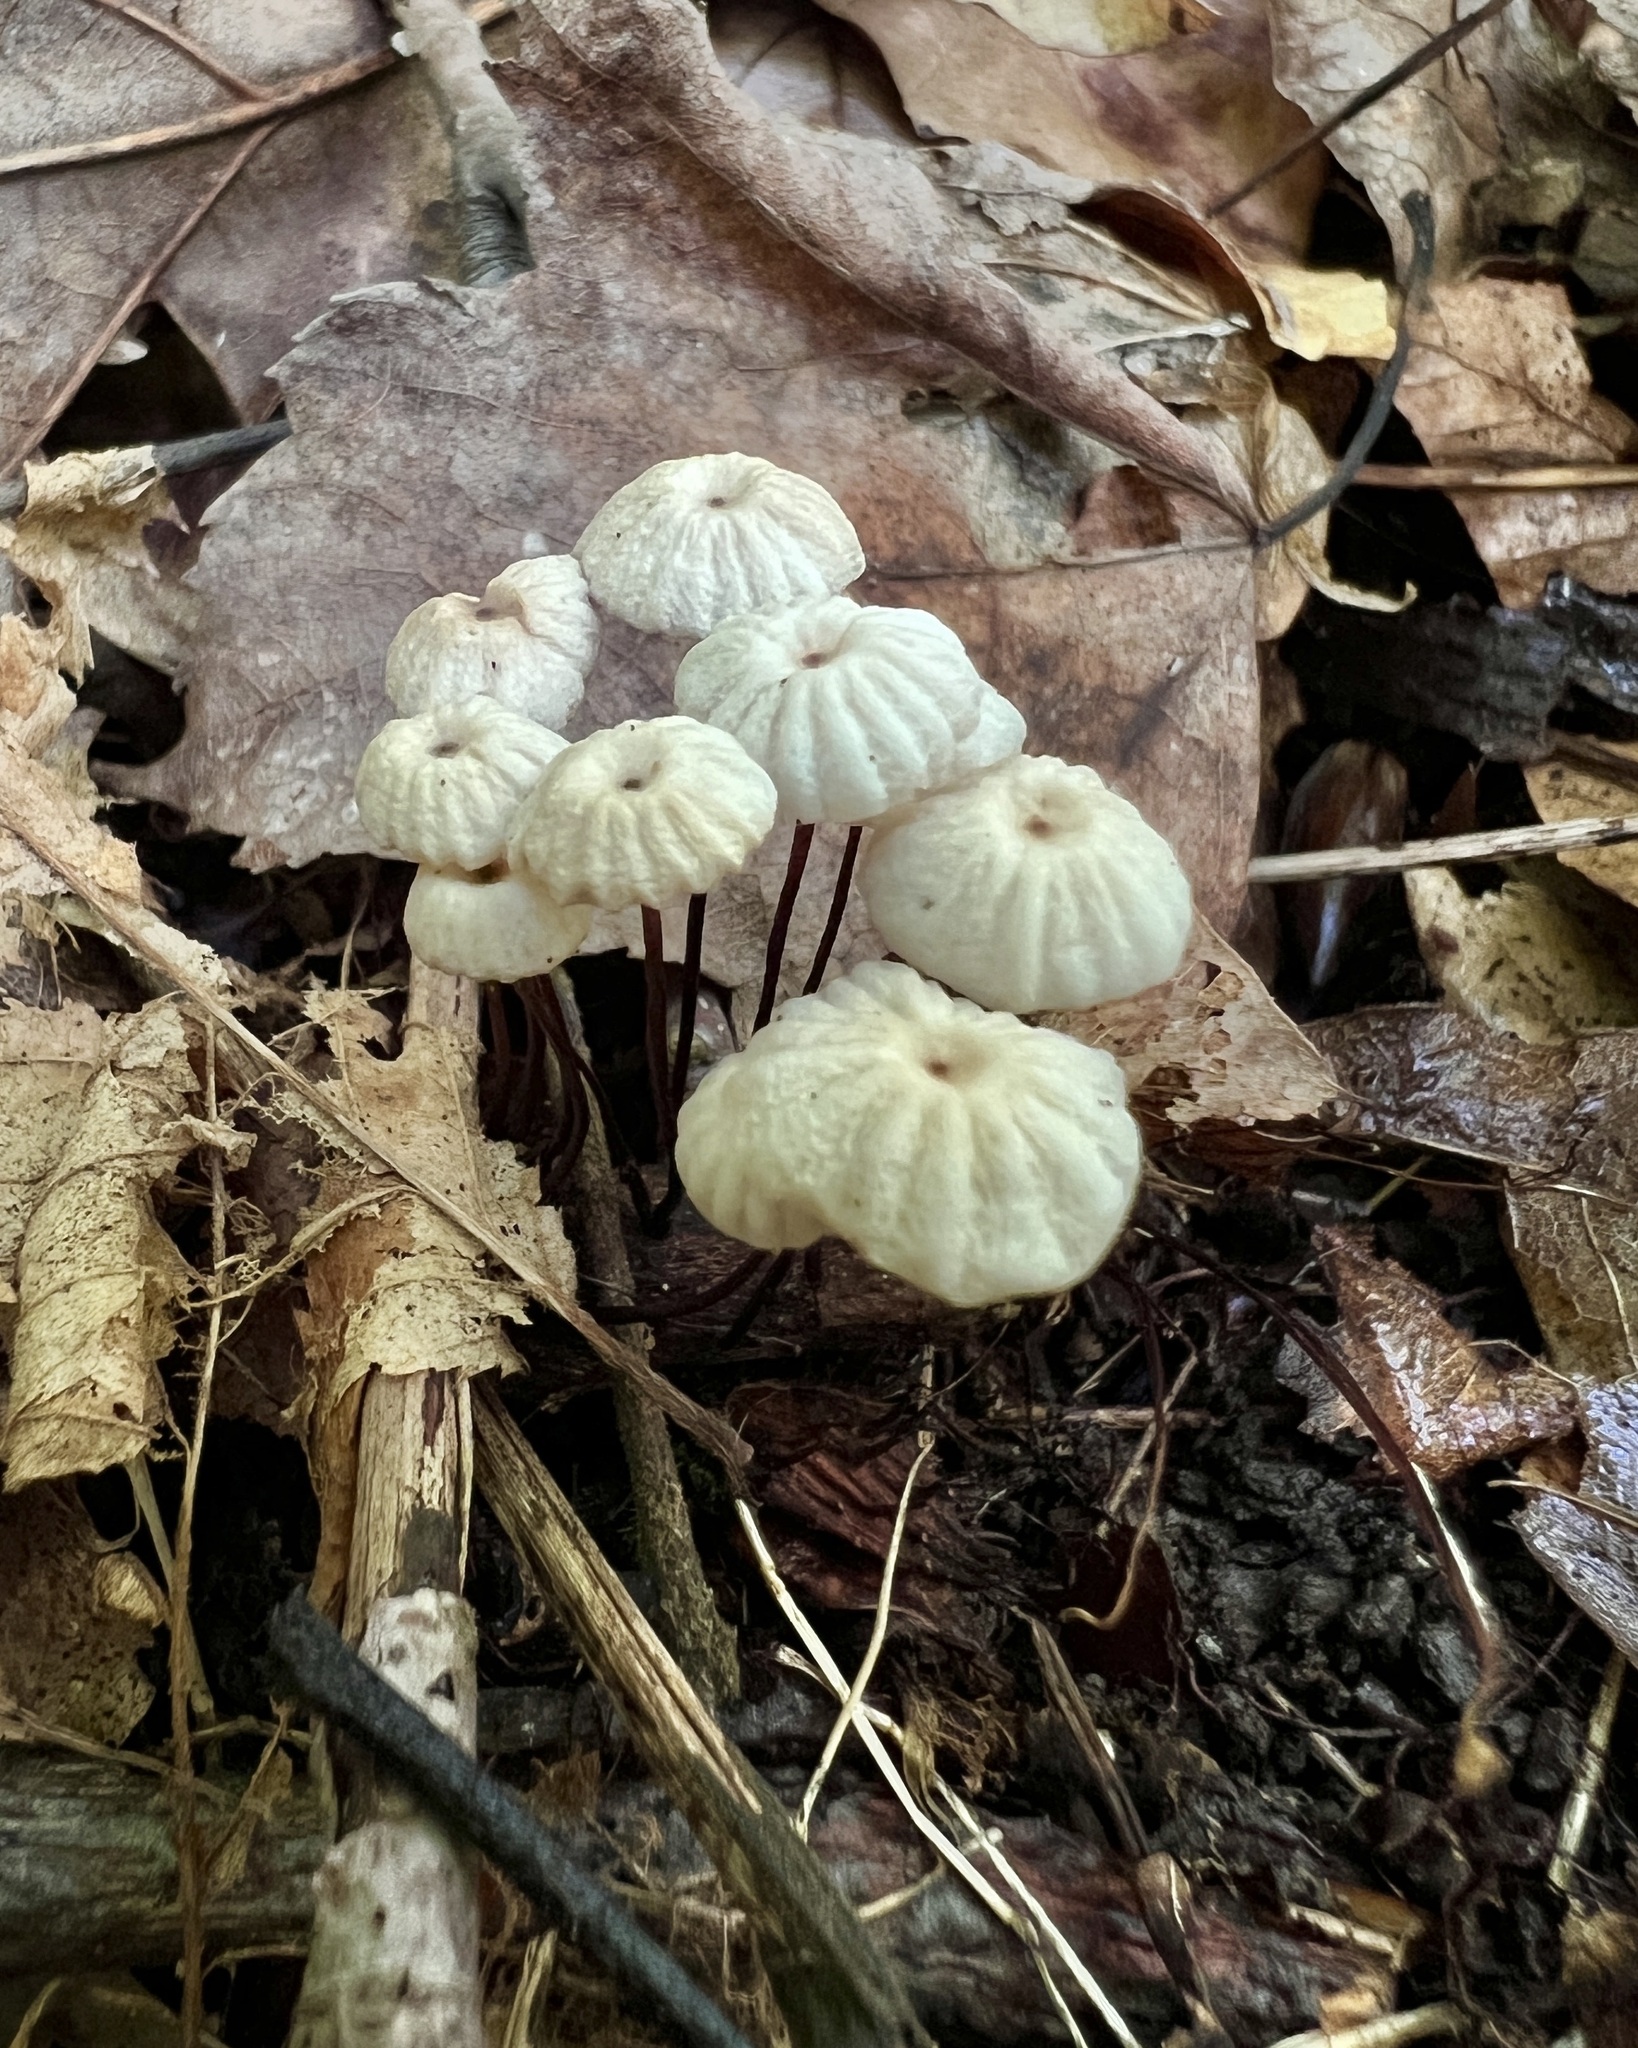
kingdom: Fungi
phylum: Basidiomycota
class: Agaricomycetes
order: Agaricales
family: Marasmiaceae
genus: Marasmius
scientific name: Marasmius rotula
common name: Collared parachute
